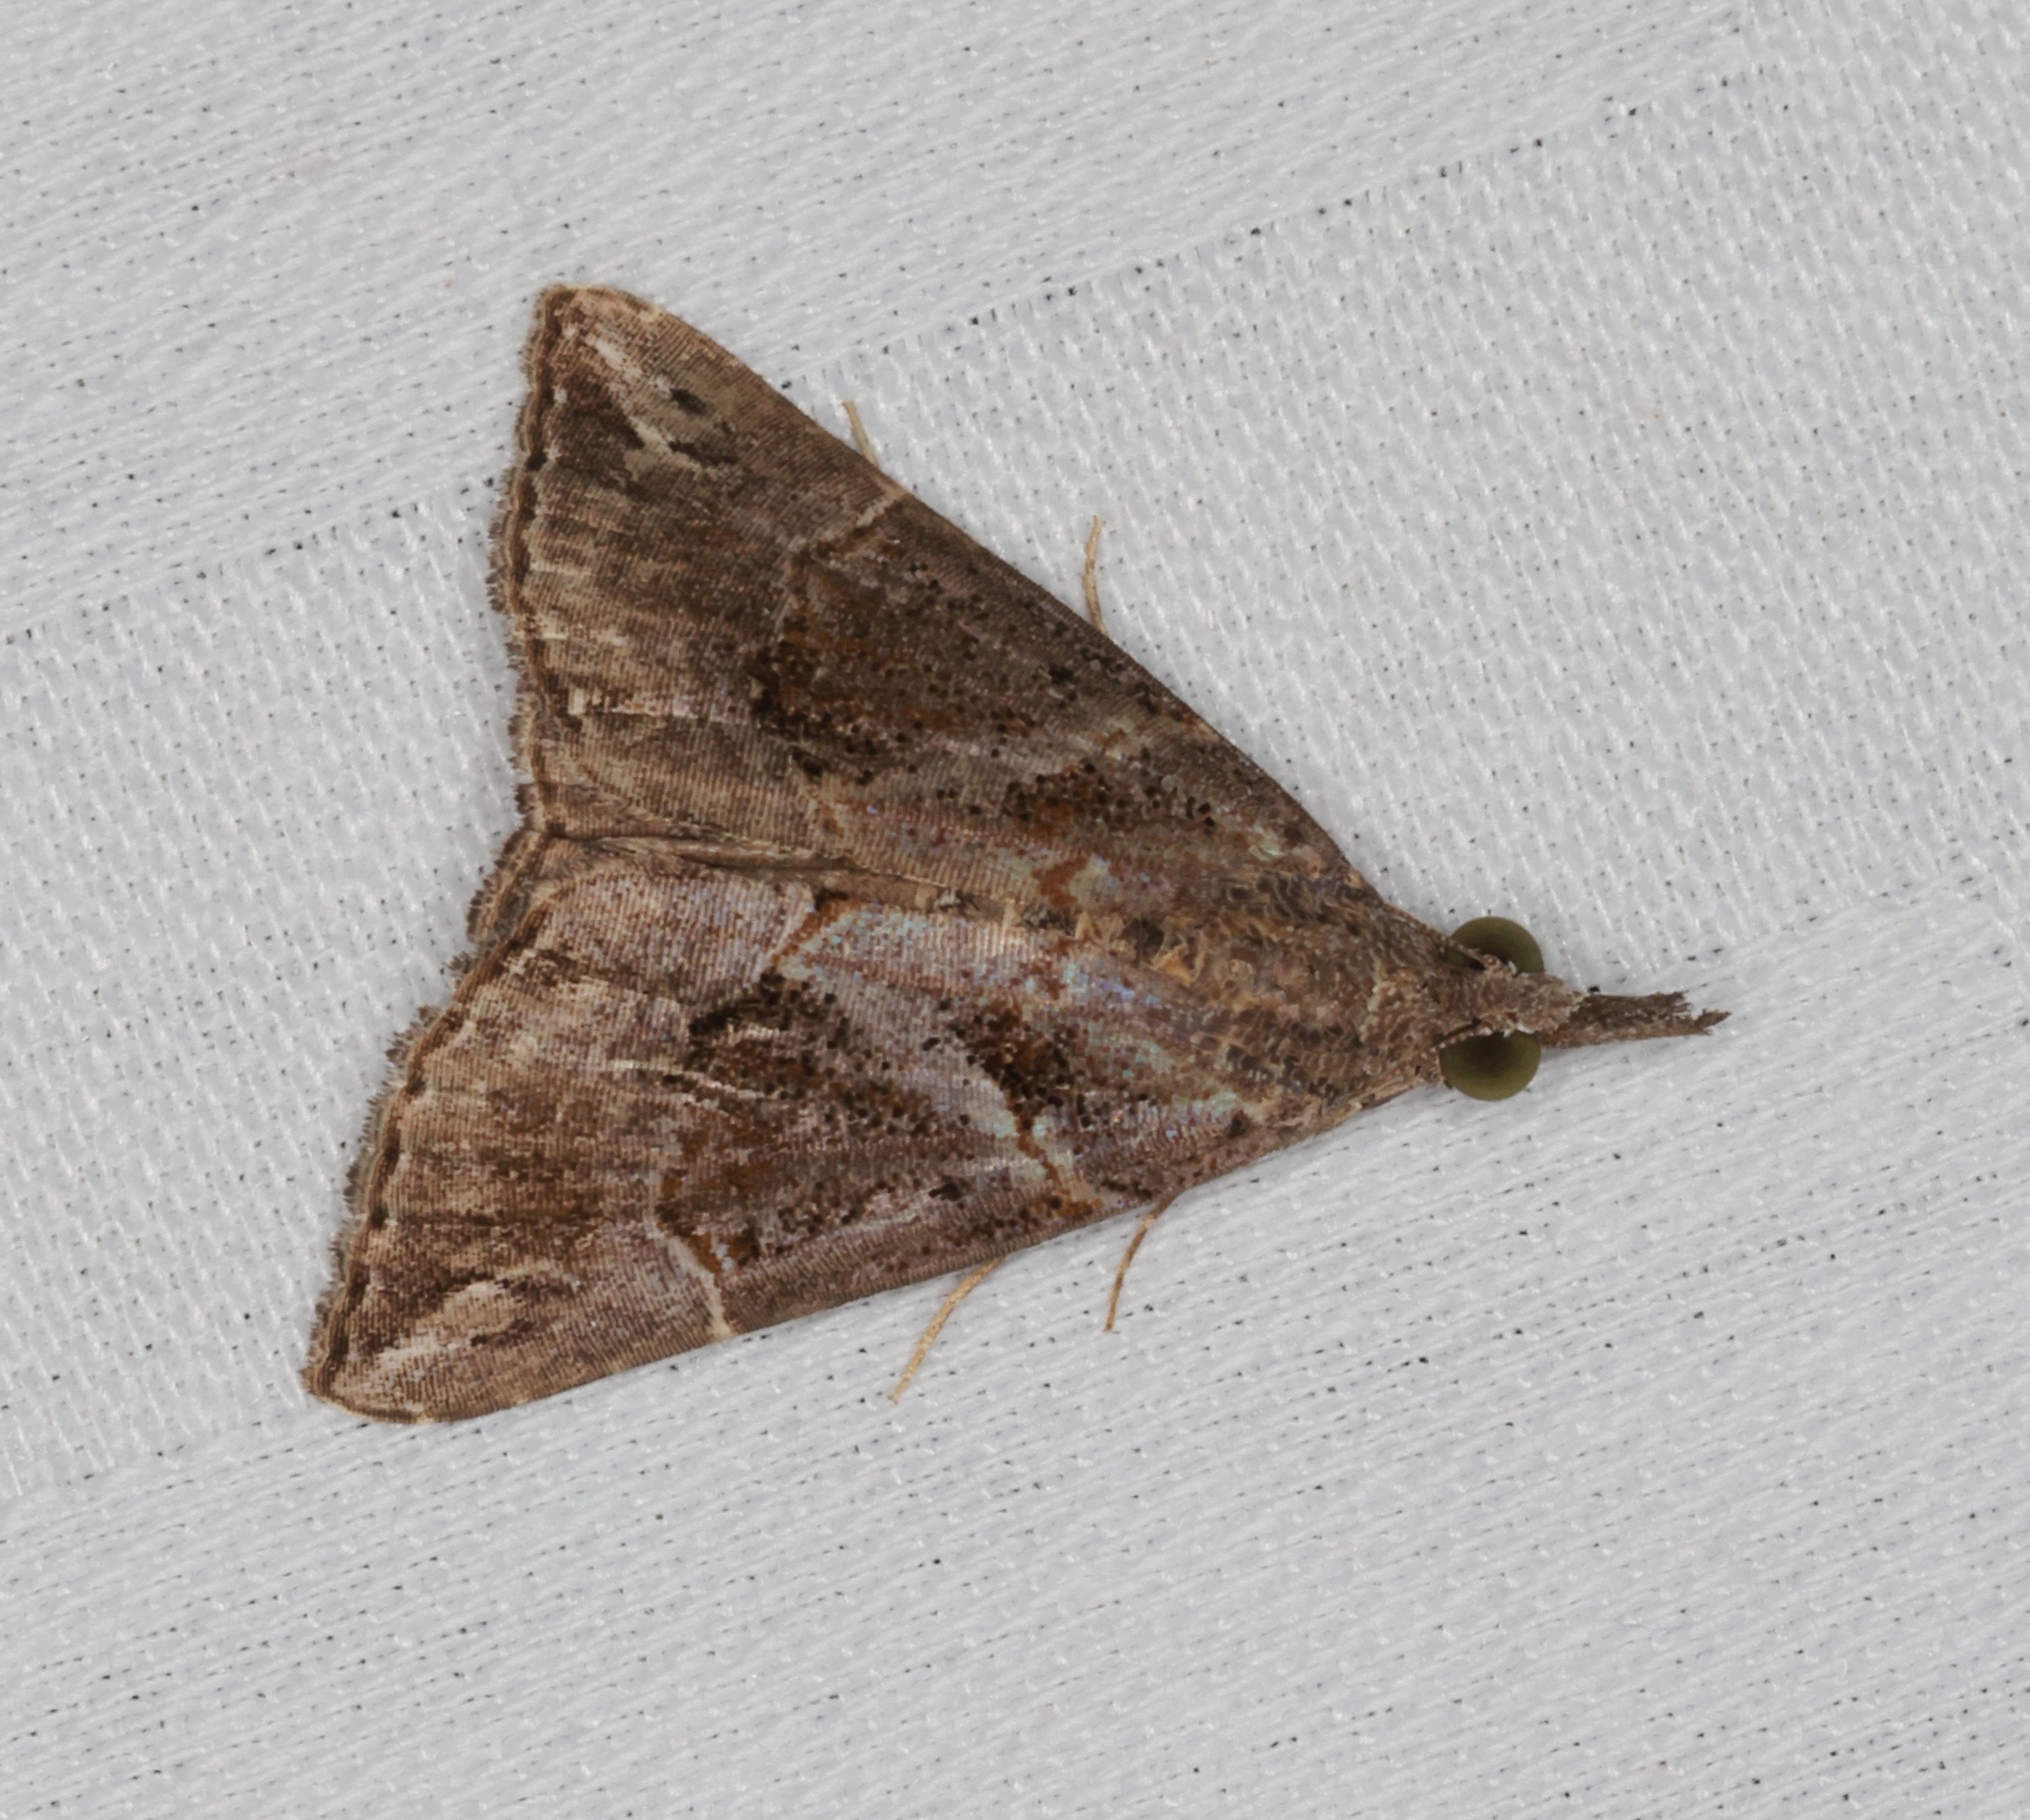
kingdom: Animalia
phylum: Arthropoda
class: Insecta
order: Lepidoptera
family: Erebidae
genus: Hypena
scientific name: Hypena commixtalis
